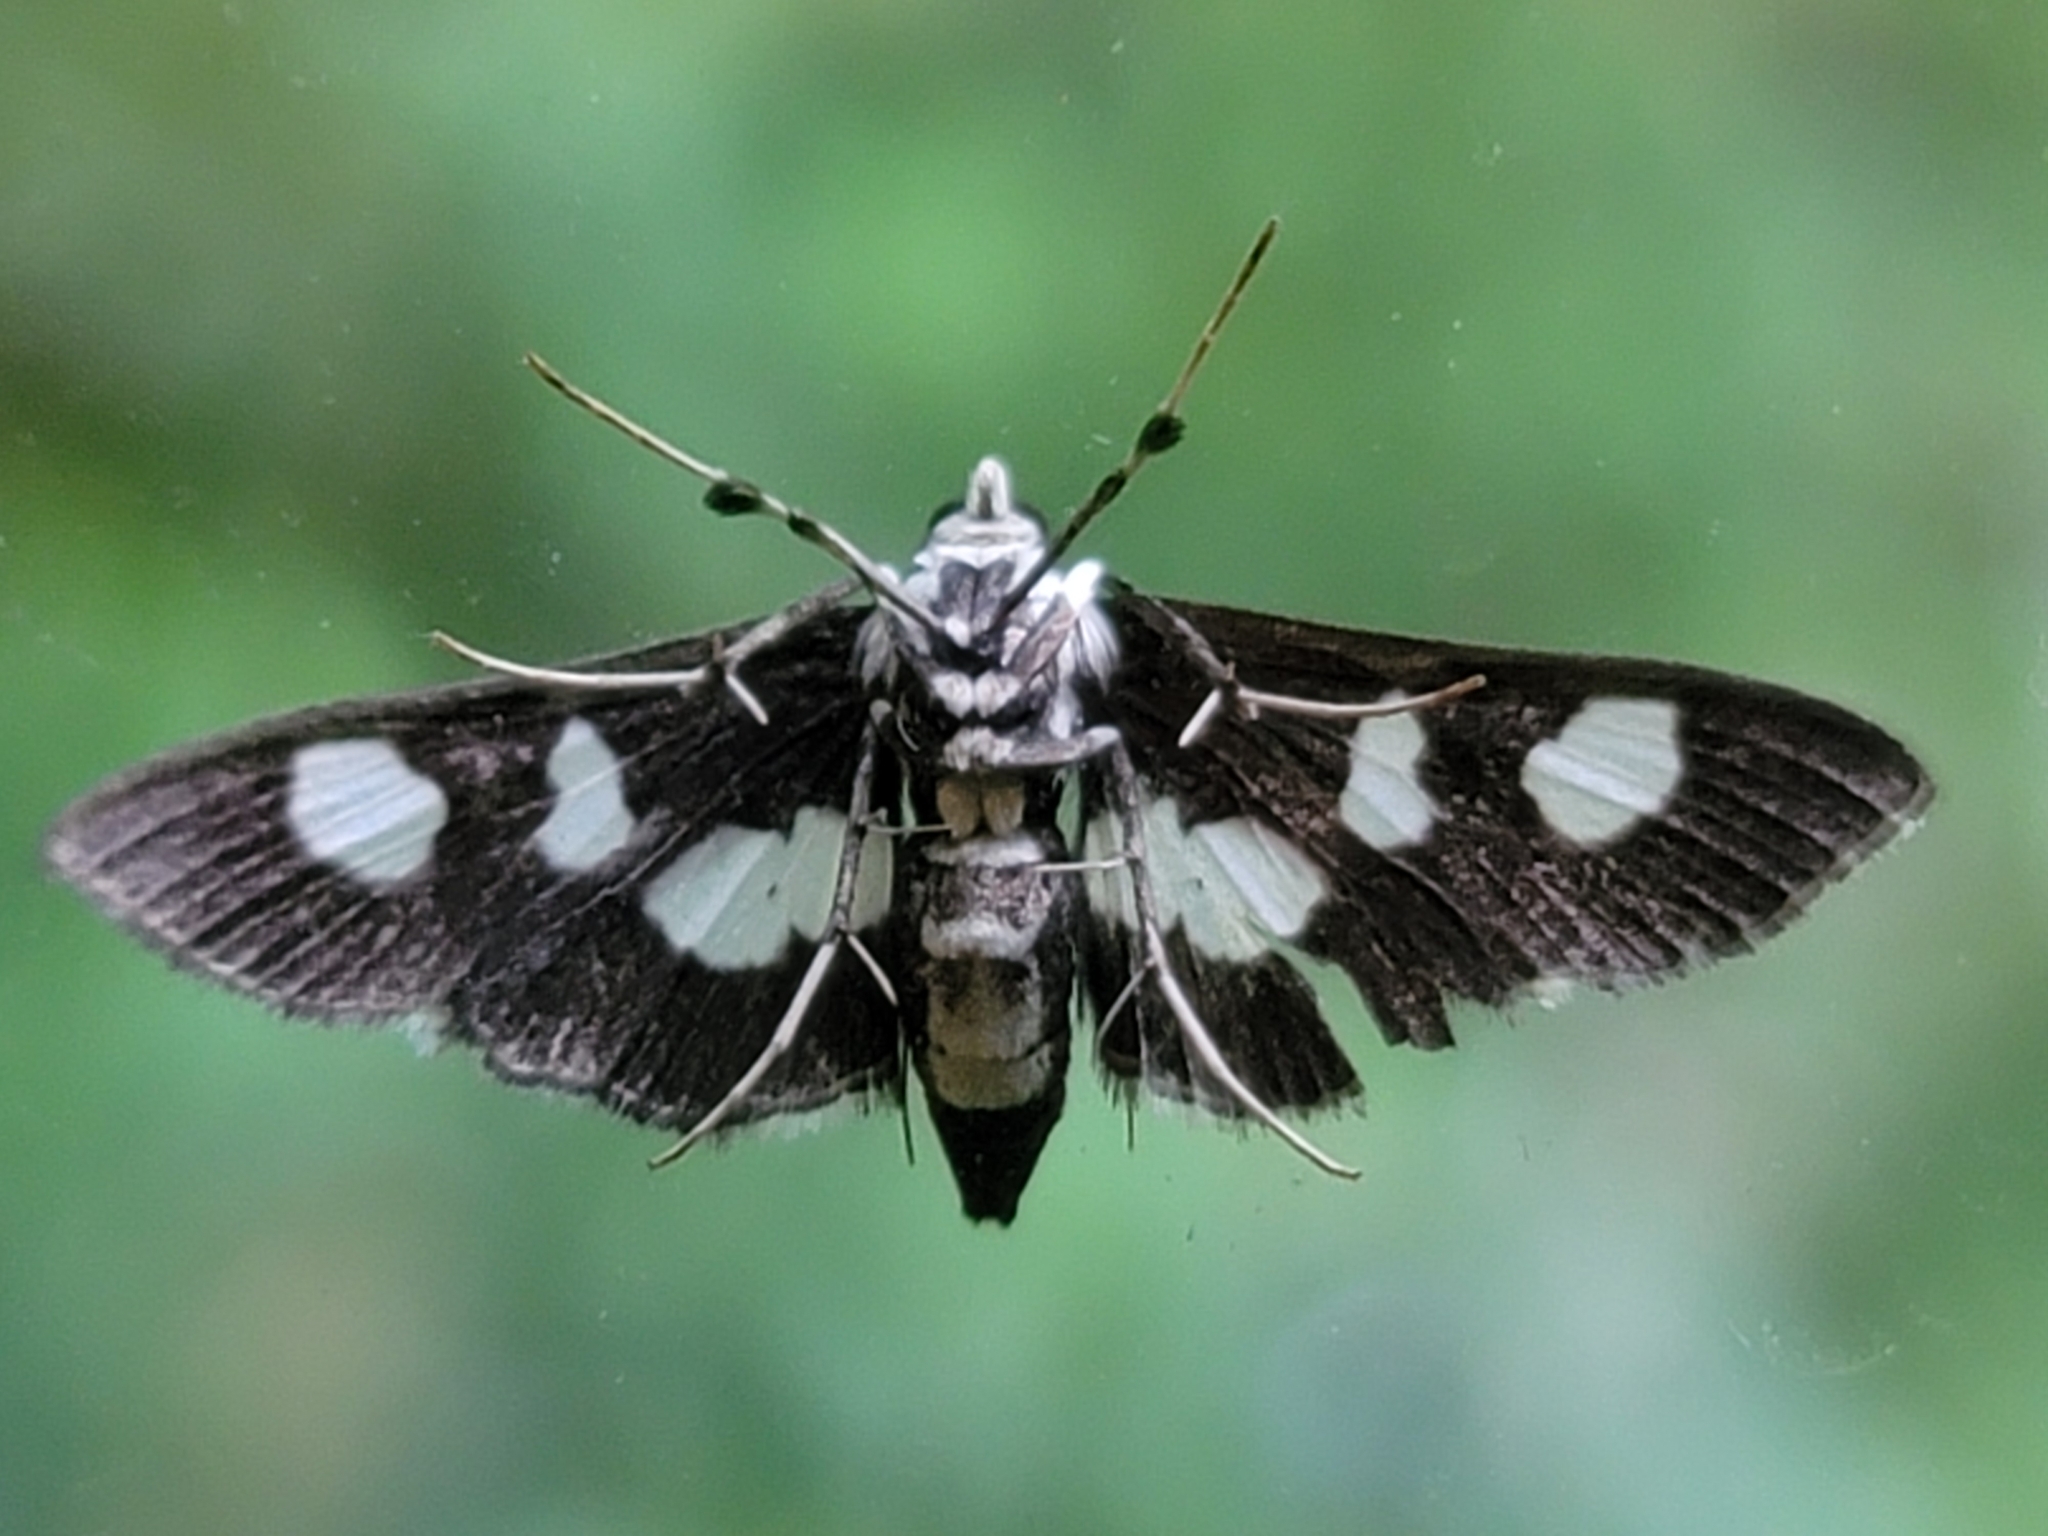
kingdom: Animalia
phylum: Arthropoda
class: Insecta
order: Lepidoptera
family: Crambidae
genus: Desmia
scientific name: Desmia funeralis
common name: Grape leaf folder moth
